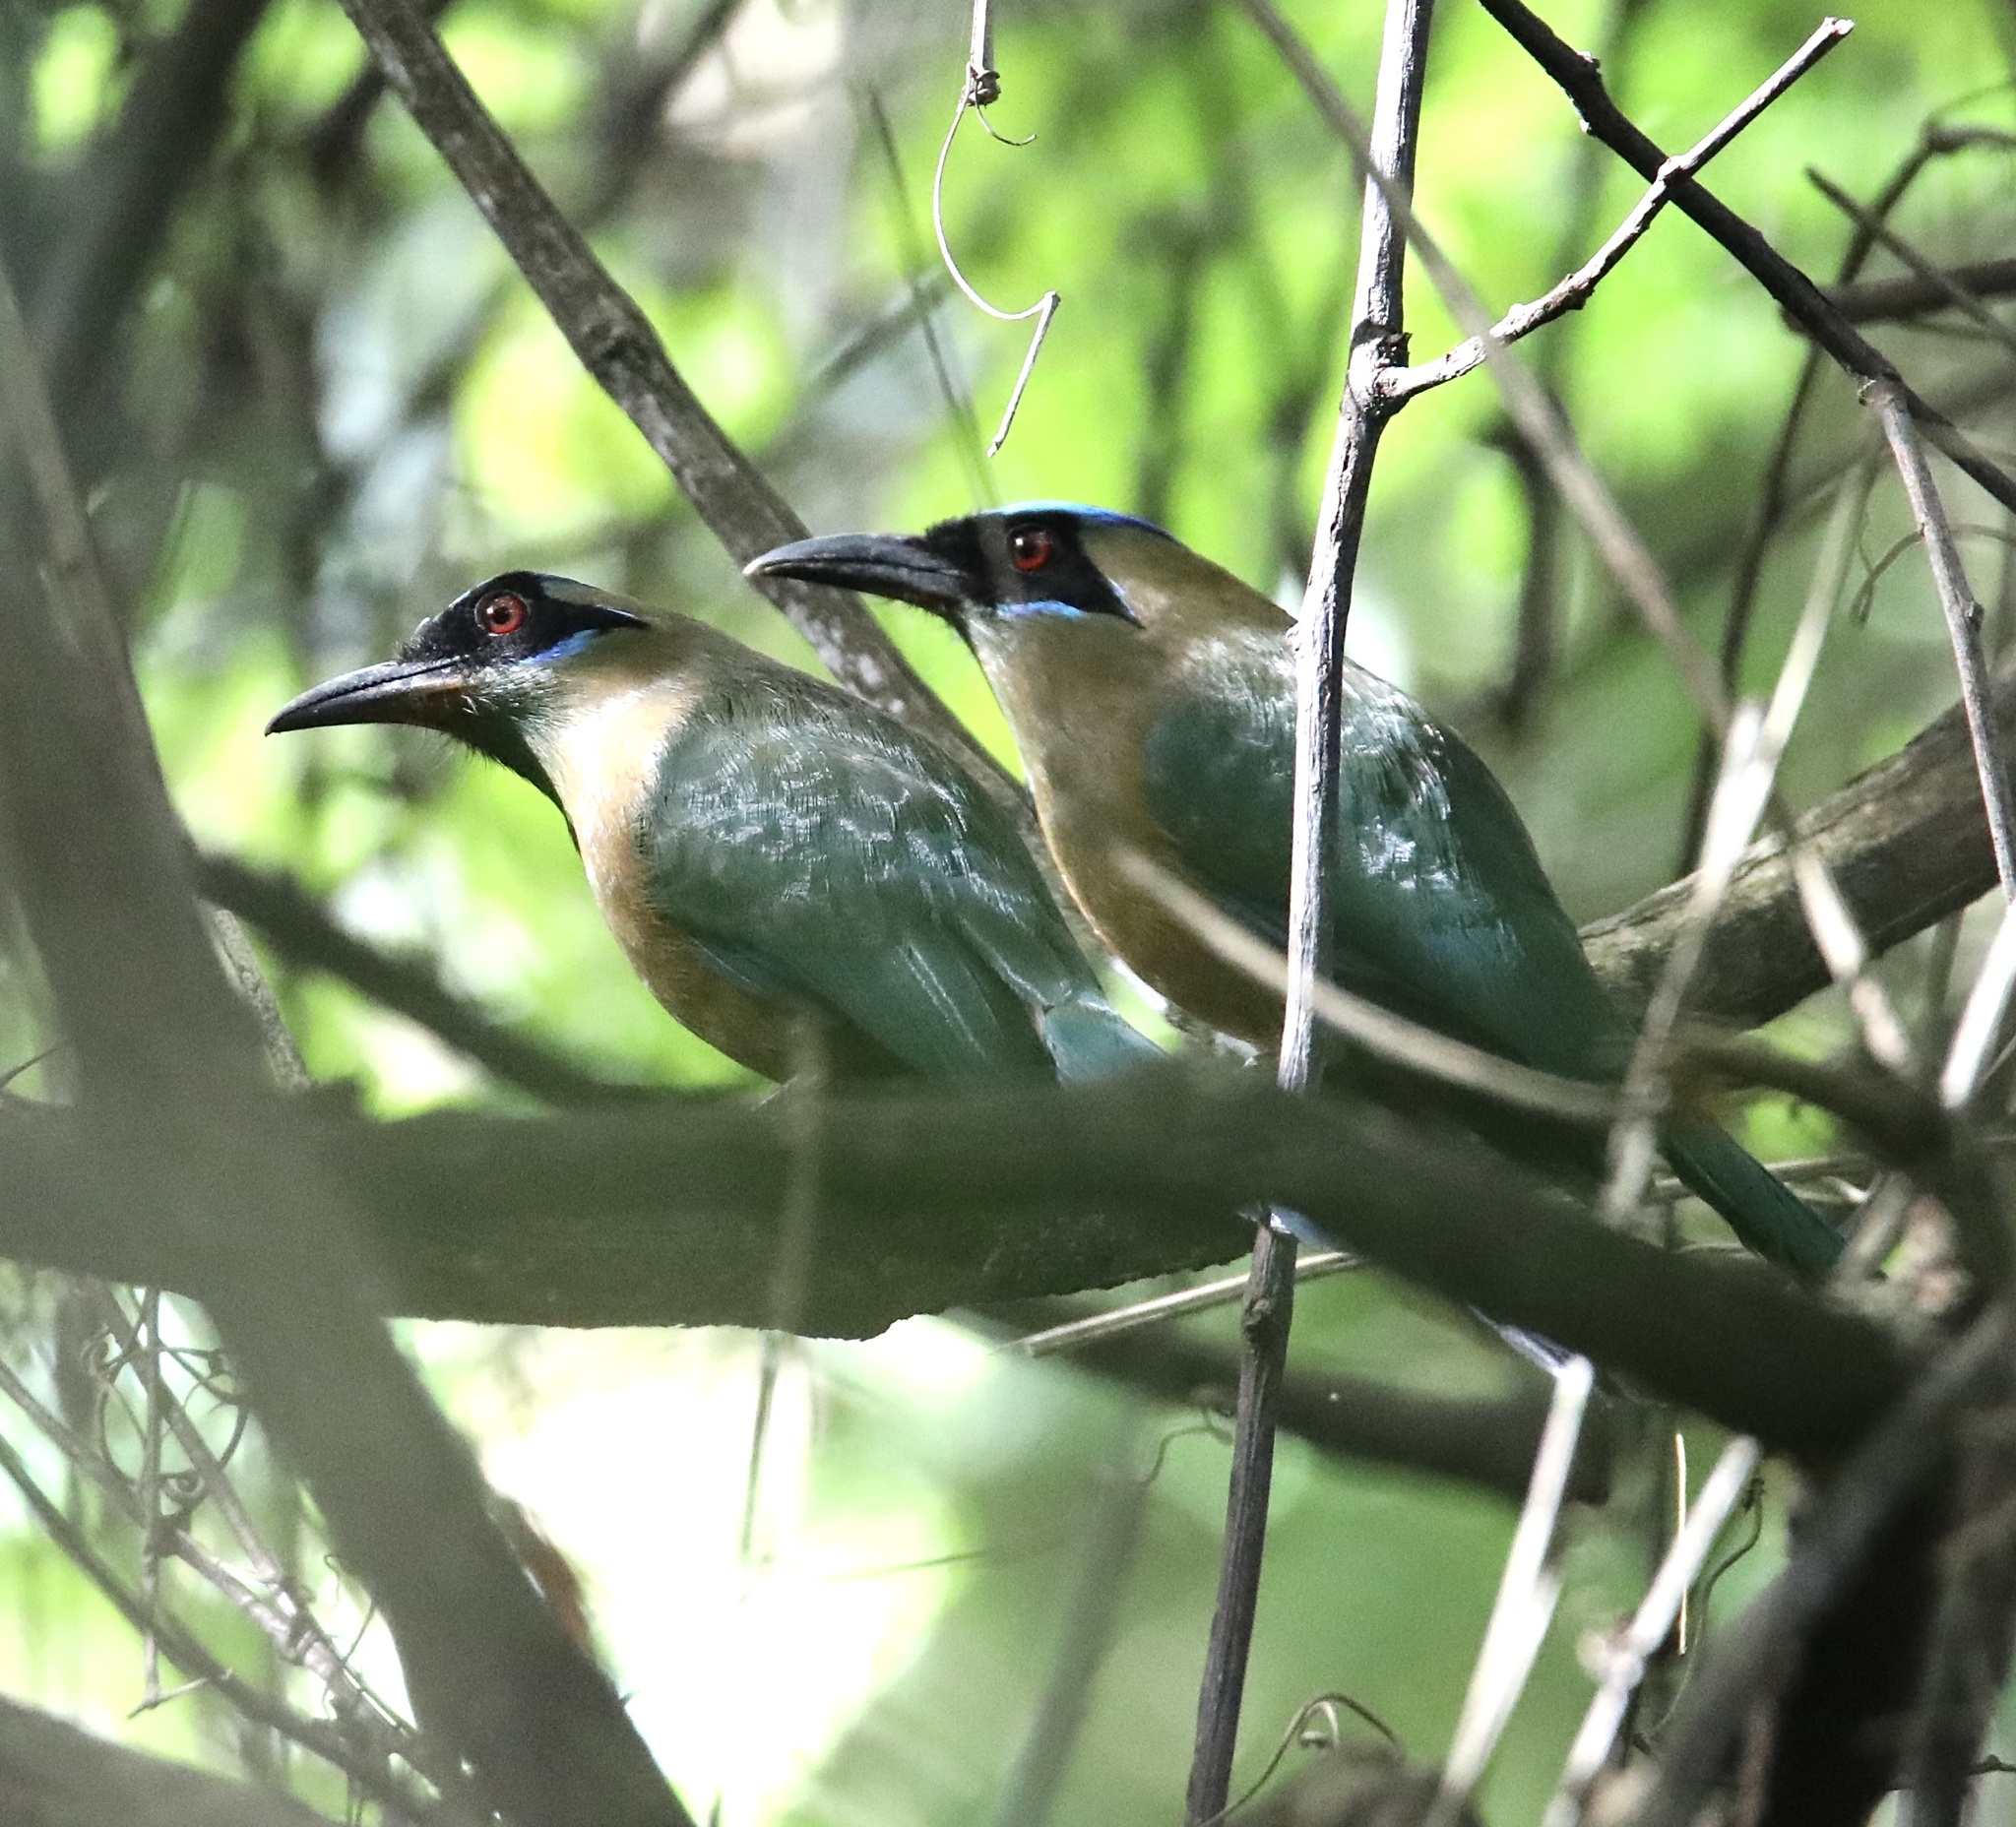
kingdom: Animalia
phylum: Chordata
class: Aves
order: Coraciiformes
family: Momotidae
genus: Momotus
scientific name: Momotus subrufescens
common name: Whooping motmot
